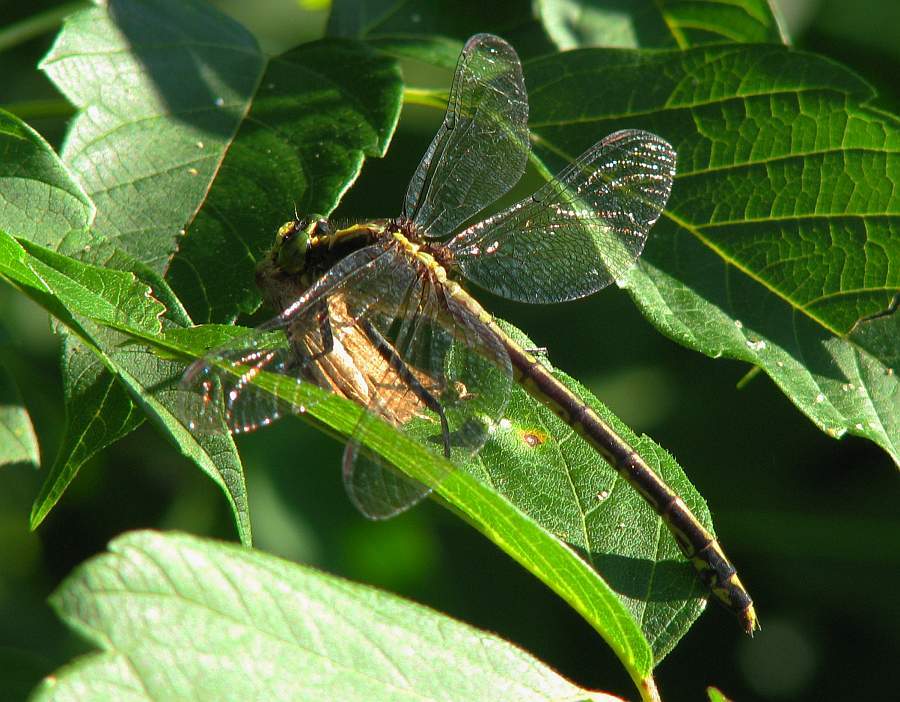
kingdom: Animalia
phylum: Arthropoda
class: Insecta
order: Odonata
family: Gomphidae
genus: Dromogomphus
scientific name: Dromogomphus spinosus
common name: Black-shouldered spinyleg
